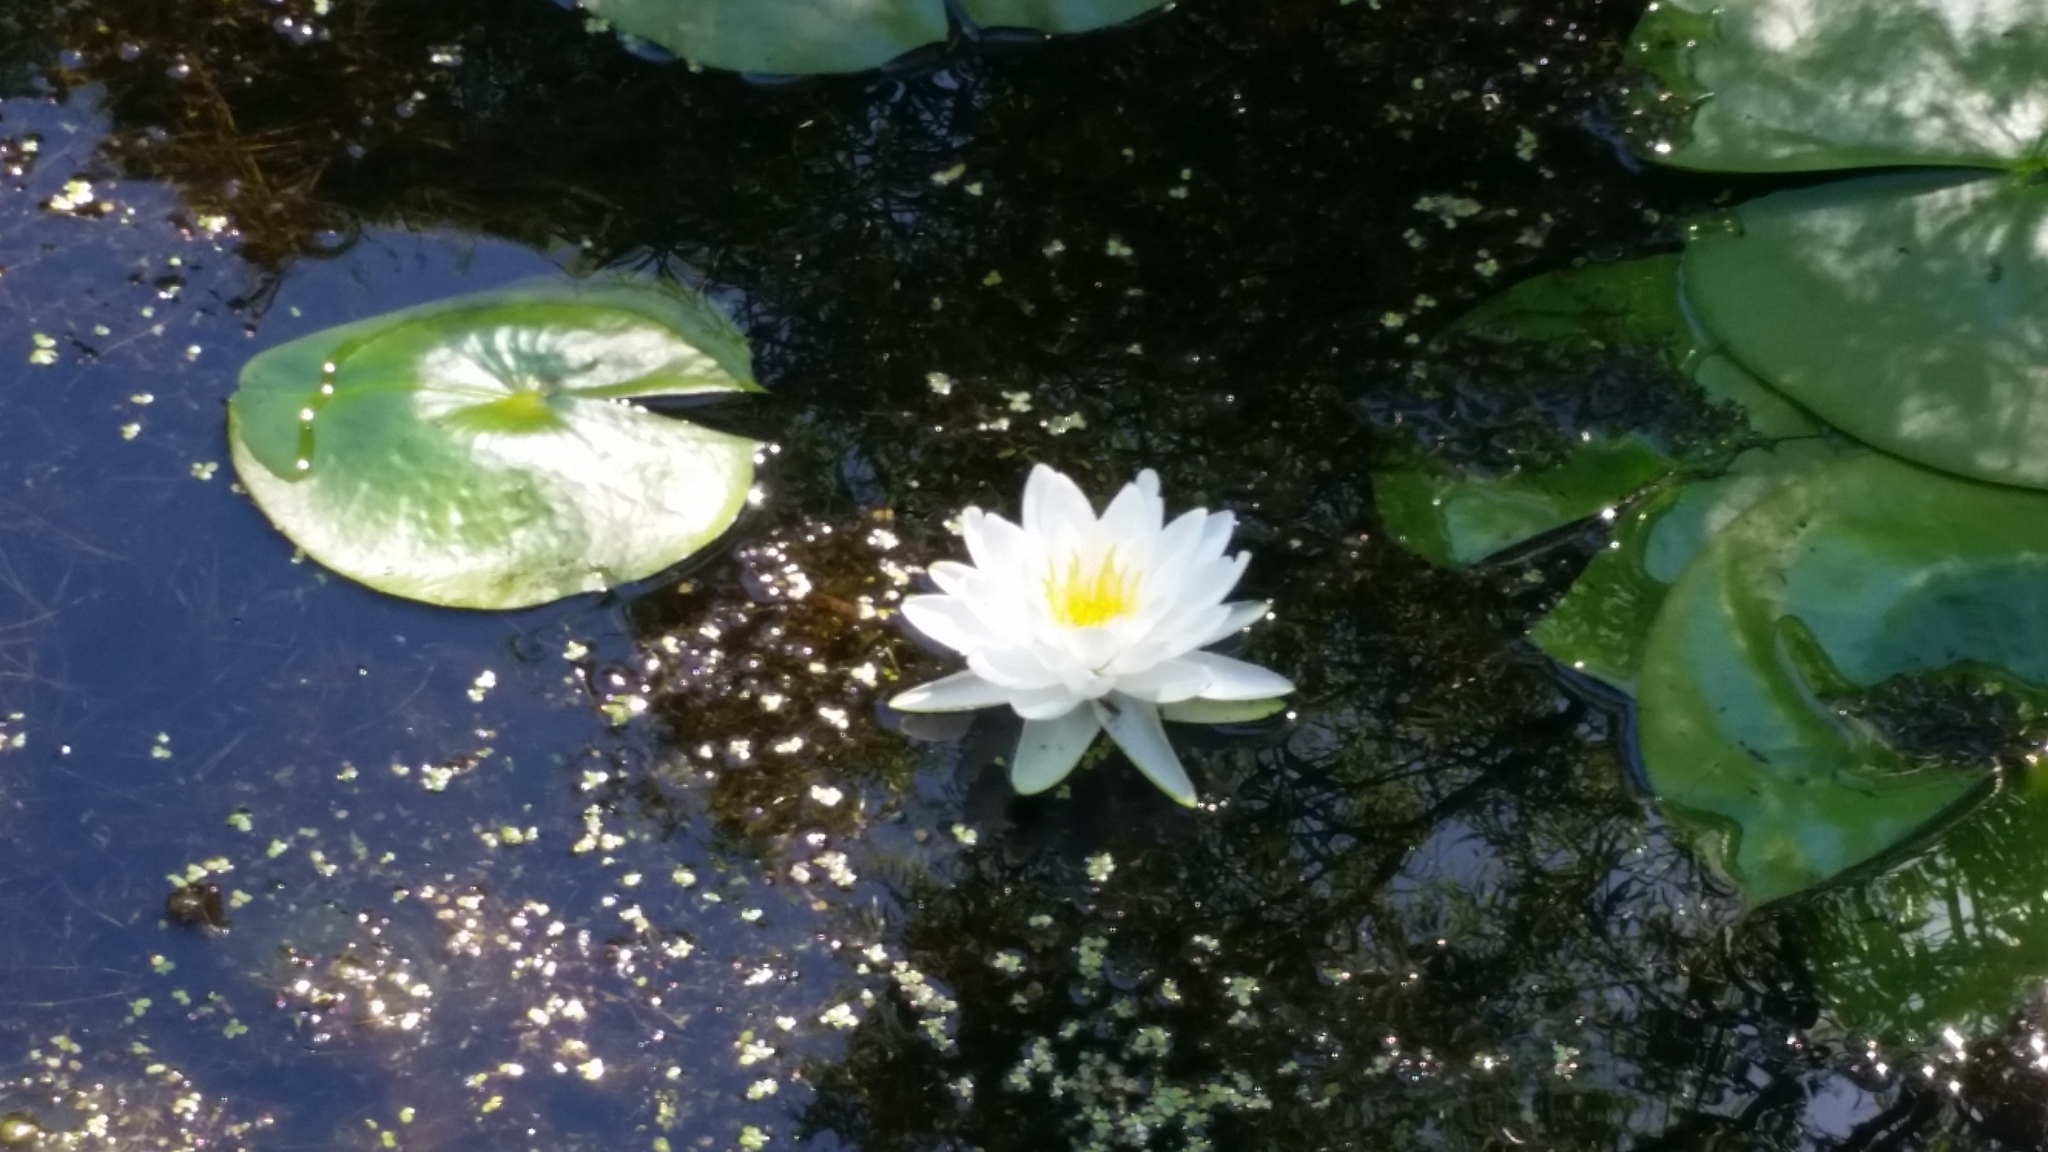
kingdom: Plantae
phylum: Tracheophyta
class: Magnoliopsida
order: Nymphaeales
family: Nymphaeaceae
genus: Nymphaea
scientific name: Nymphaea odorata
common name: Fragrant water-lily
